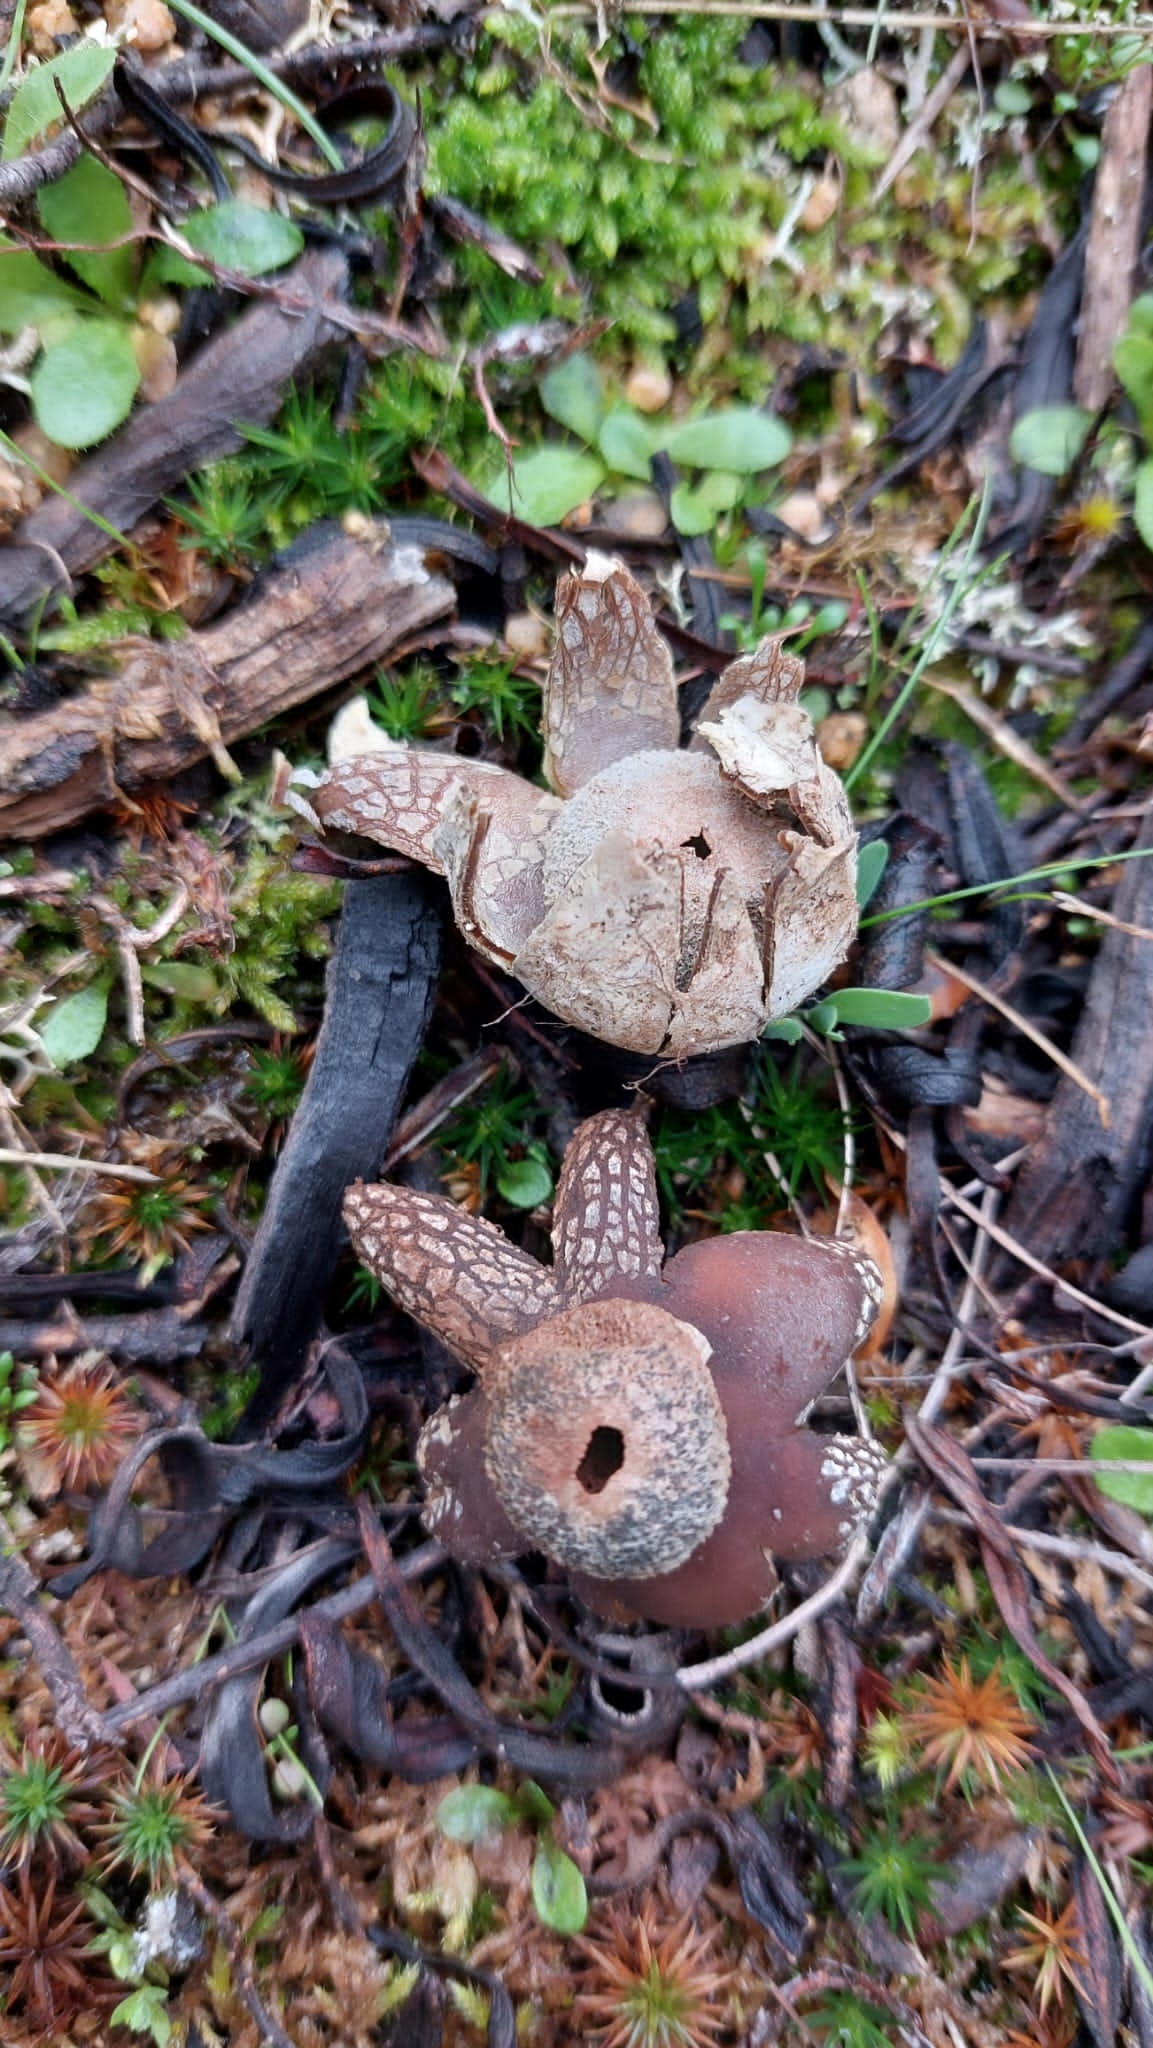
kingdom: Fungi
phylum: Basidiomycota
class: Agaricomycetes
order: Boletales
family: Diplocystidiaceae
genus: Astraeus
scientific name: Astraeus hygrometricus
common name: Barometer earthstar
